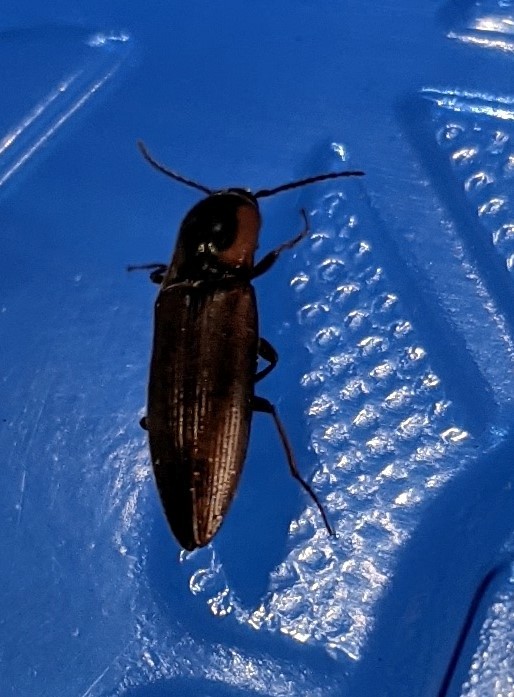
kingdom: Animalia
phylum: Arthropoda
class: Insecta
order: Coleoptera
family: Elateridae
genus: Agriotes
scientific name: Agriotes collaris
